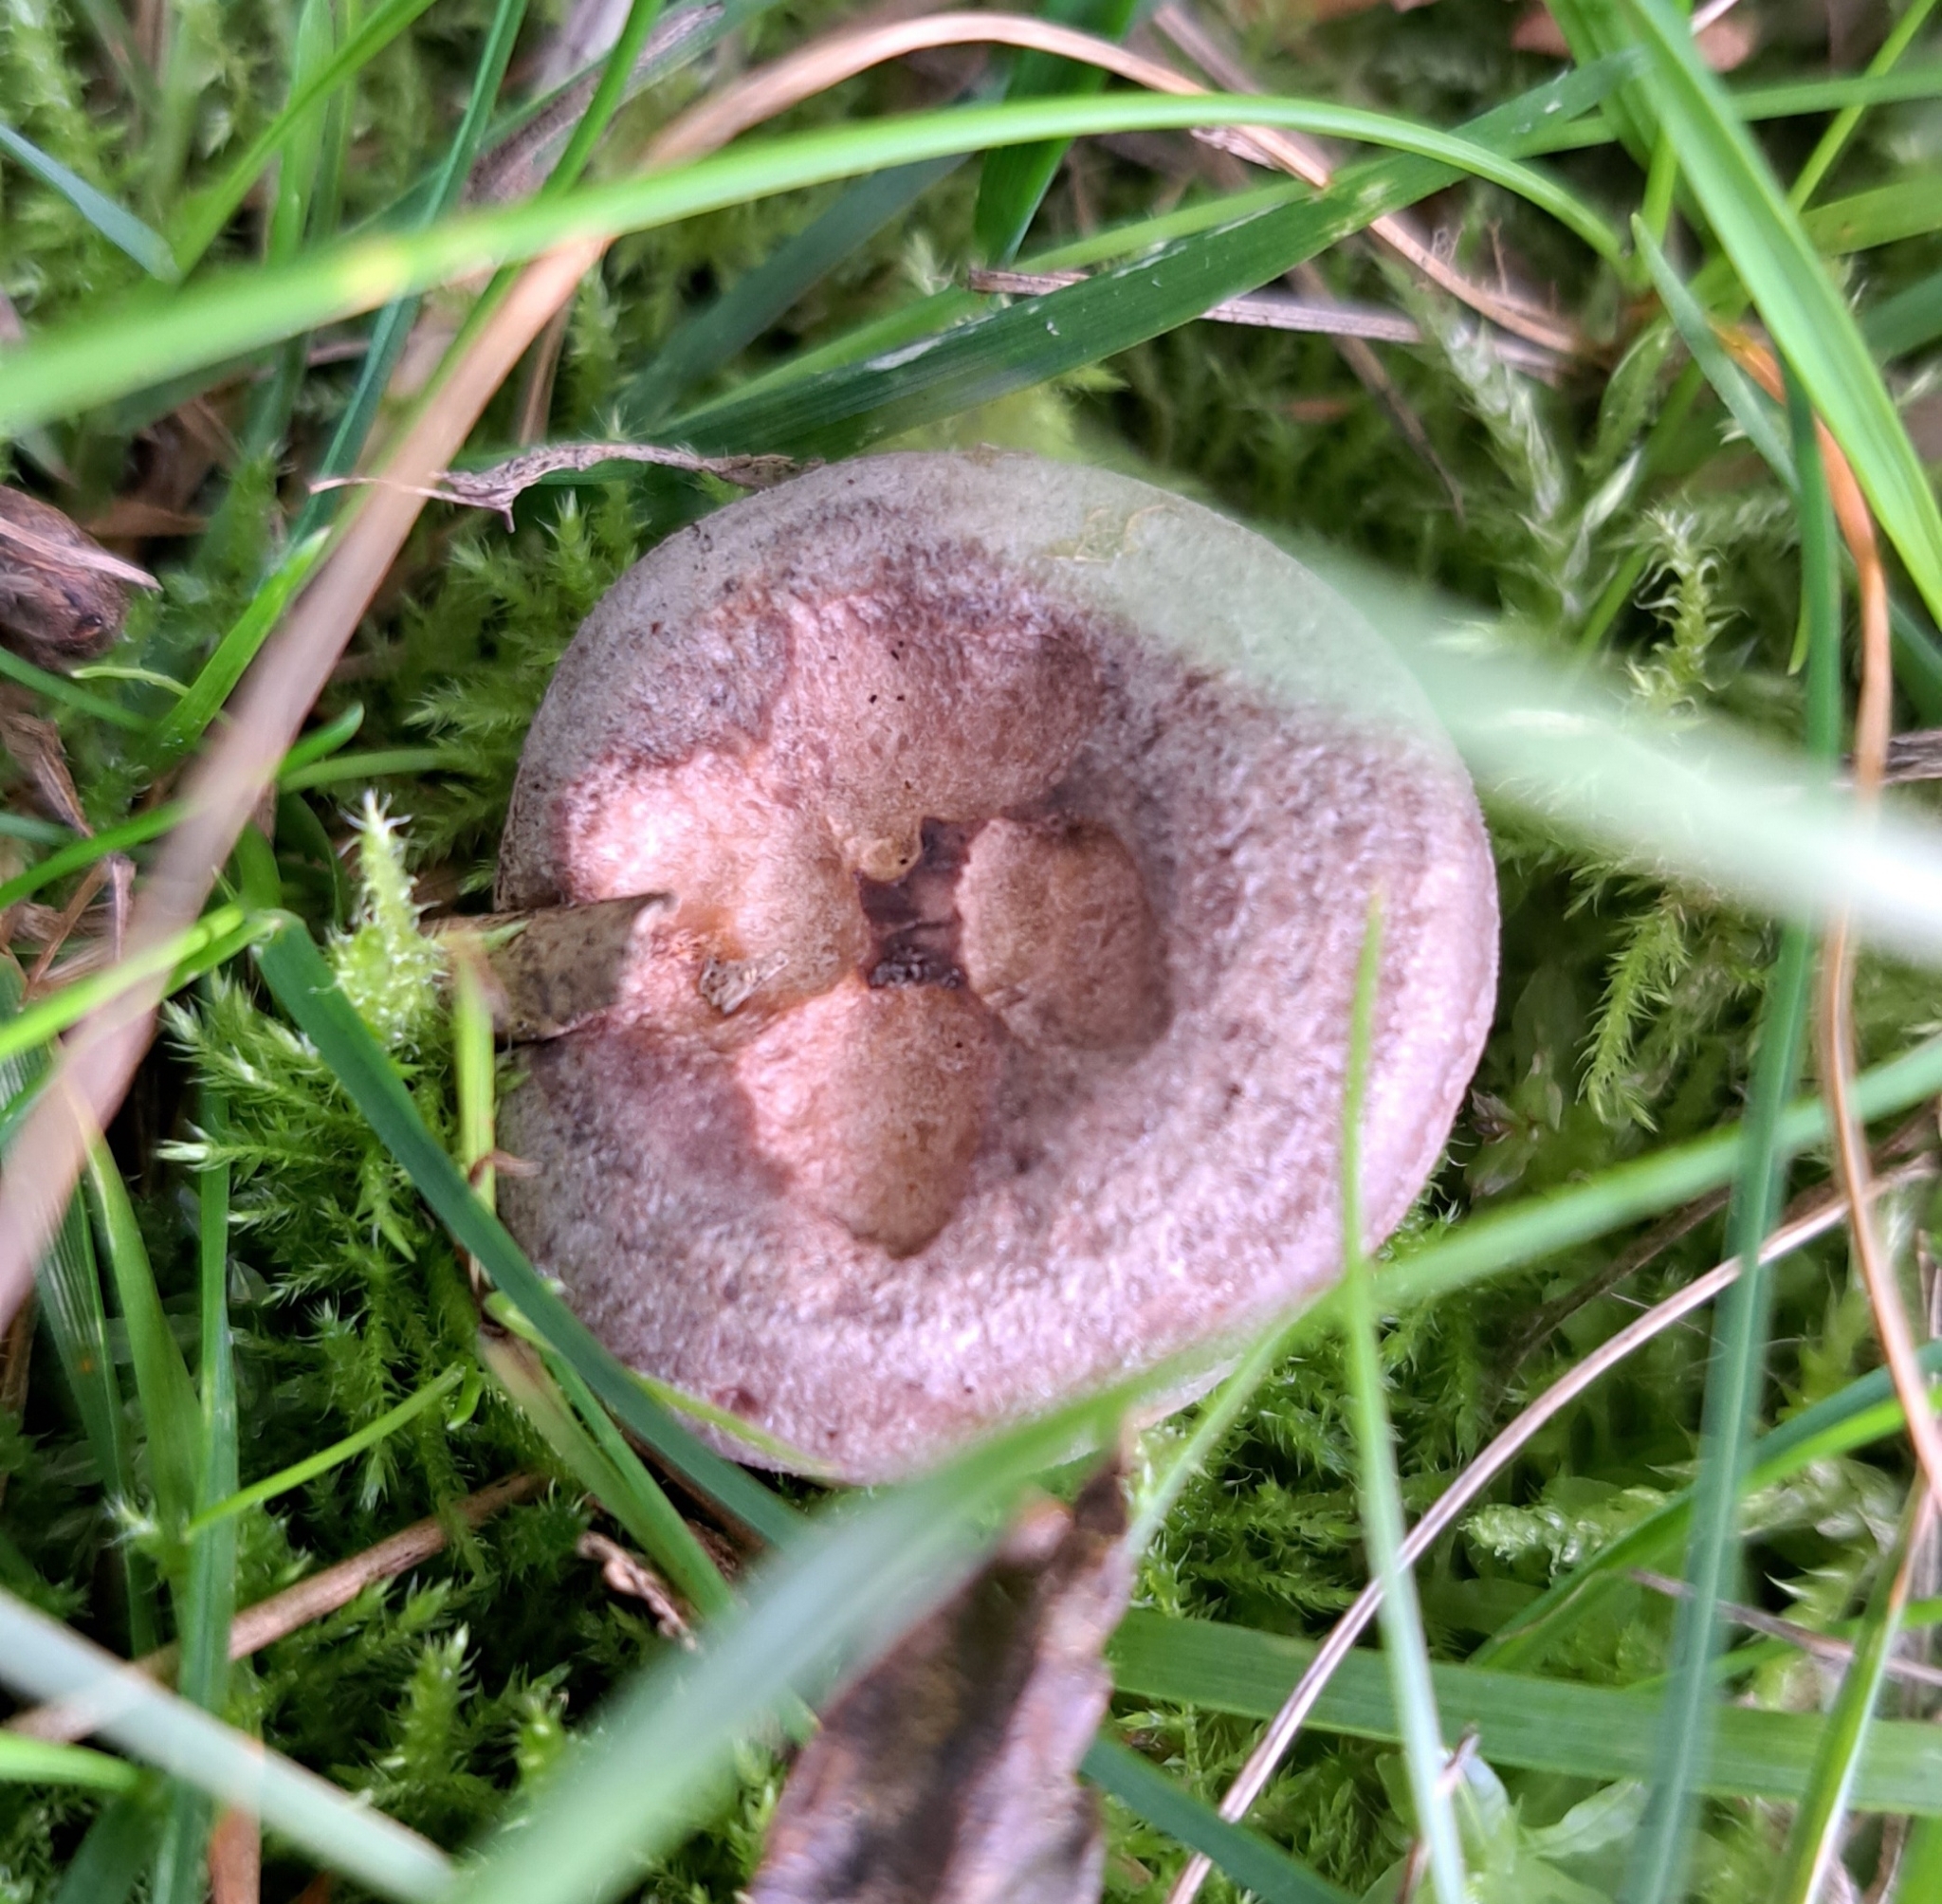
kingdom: Fungi
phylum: Basidiomycota
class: Agaricomycetes
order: Russulales
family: Russulaceae
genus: Lactarius
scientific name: Lactarius quietus
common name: Oak milk-cap
